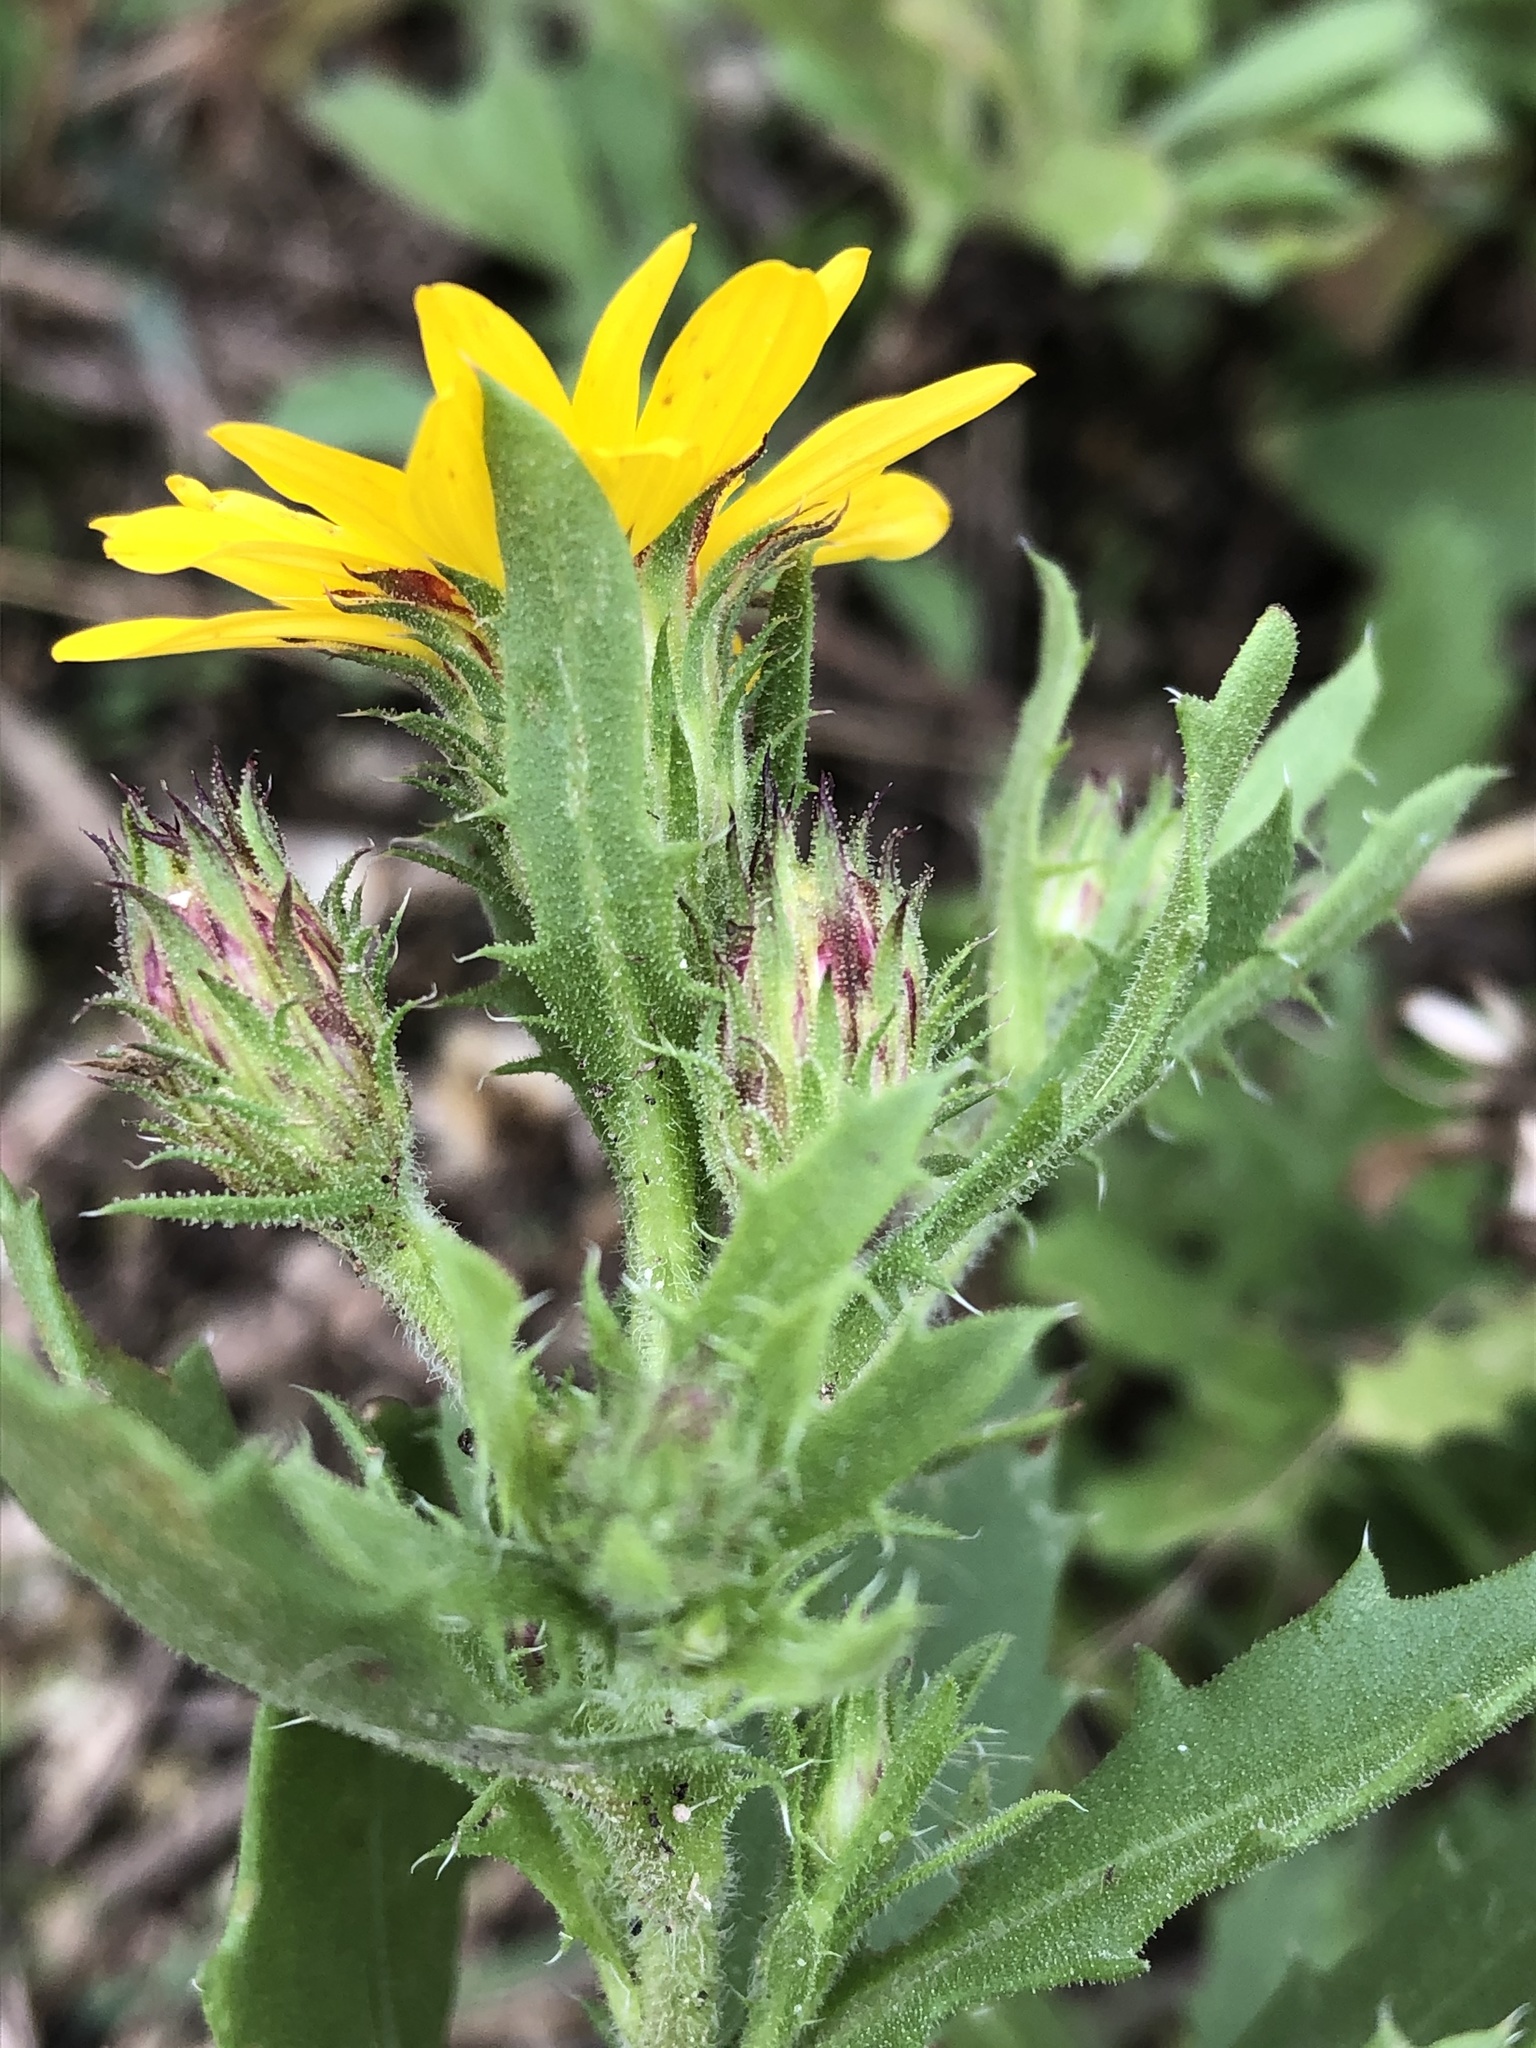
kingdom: Plantae
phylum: Tracheophyta
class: Magnoliopsida
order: Asterales
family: Asteraceae
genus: Rayjacksonia
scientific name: Rayjacksonia phyllocephala
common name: Gulf coast camphor daisy
